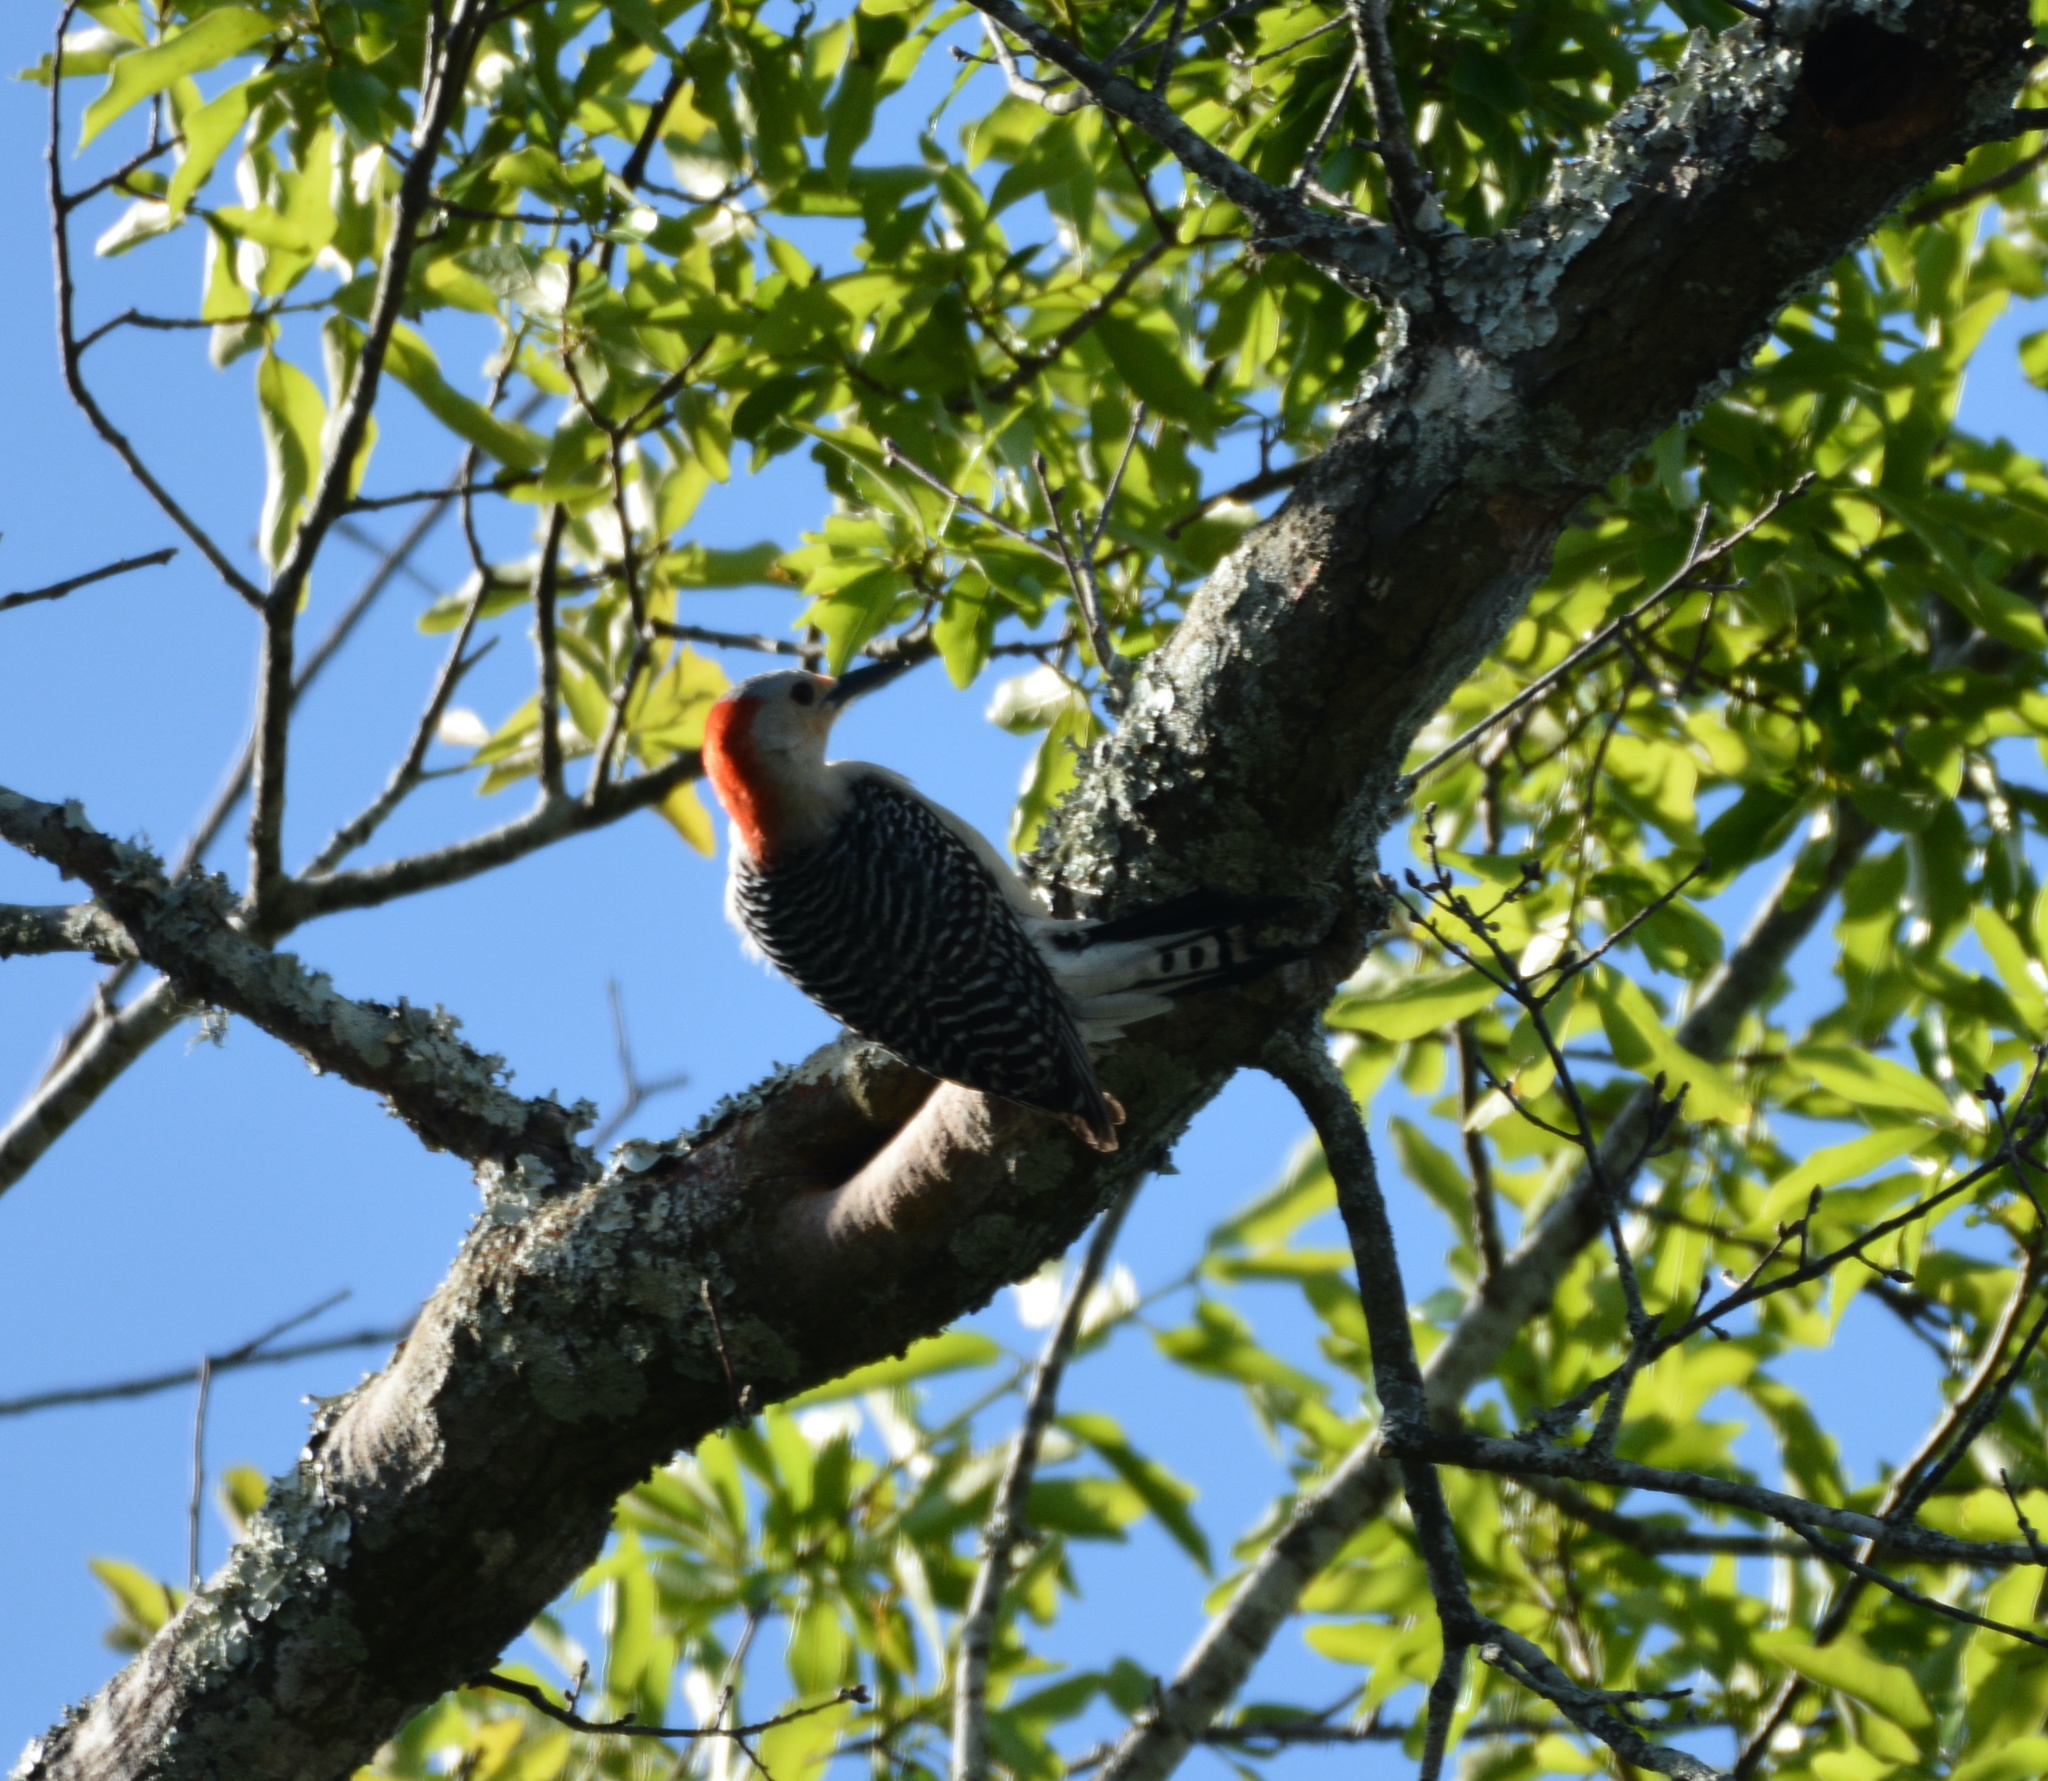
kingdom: Animalia
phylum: Chordata
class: Aves
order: Piciformes
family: Picidae
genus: Melanerpes
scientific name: Melanerpes carolinus
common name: Red-bellied woodpecker
